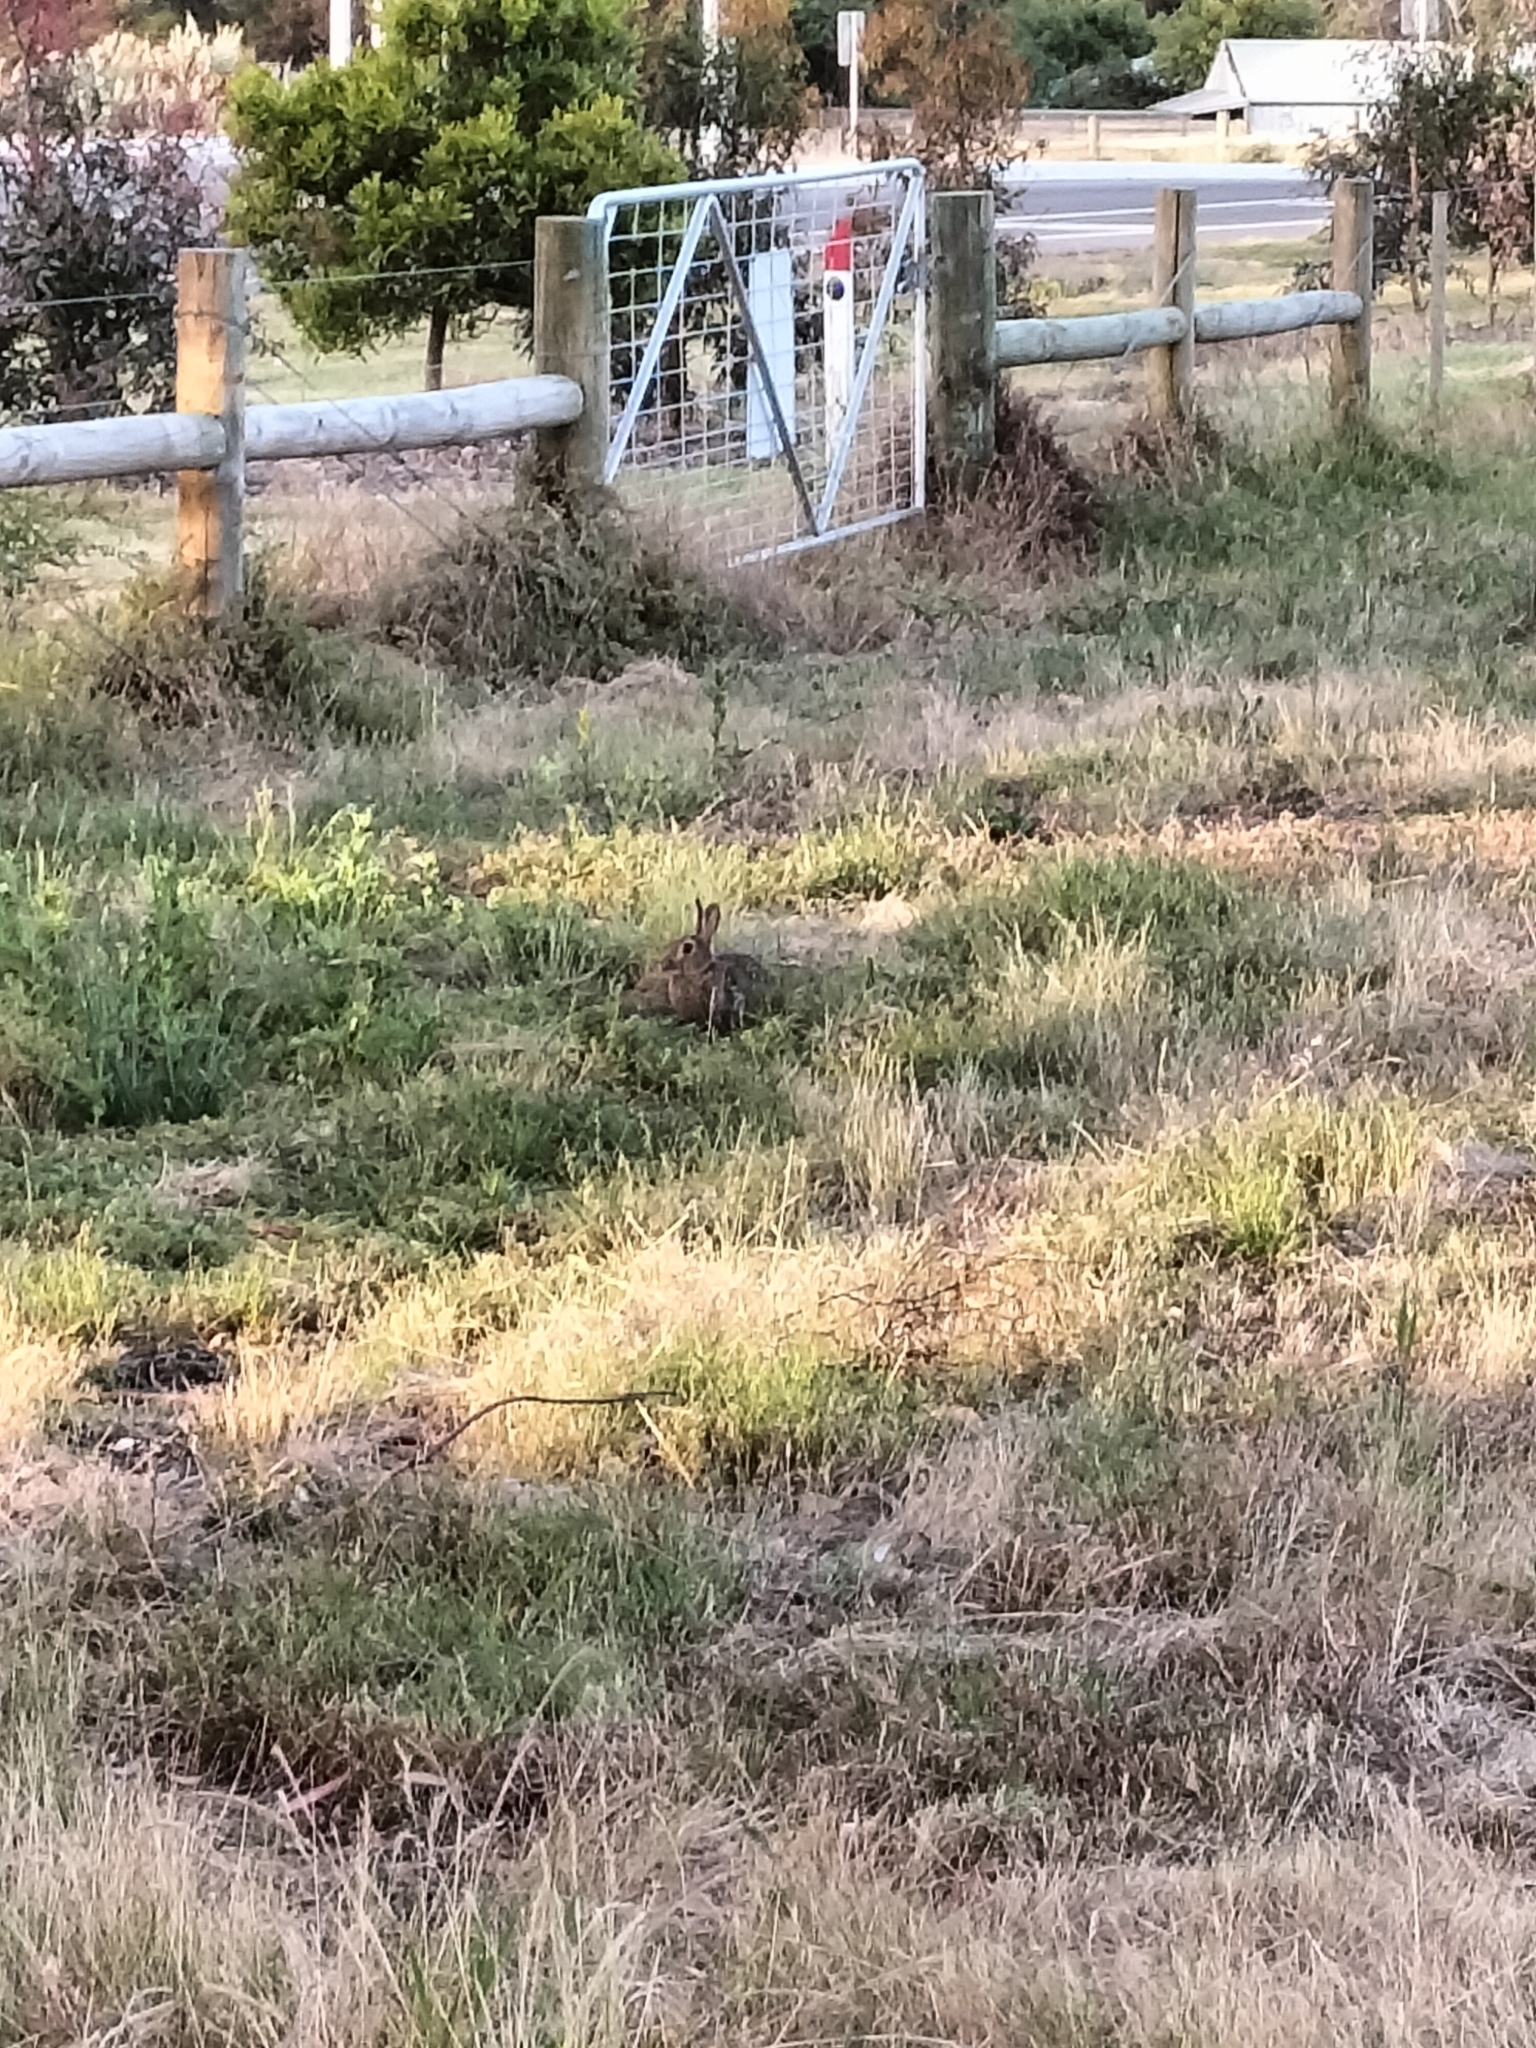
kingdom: Animalia
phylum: Chordata
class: Mammalia
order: Lagomorpha
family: Leporidae
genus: Oryctolagus
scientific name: Oryctolagus cuniculus
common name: European rabbit
